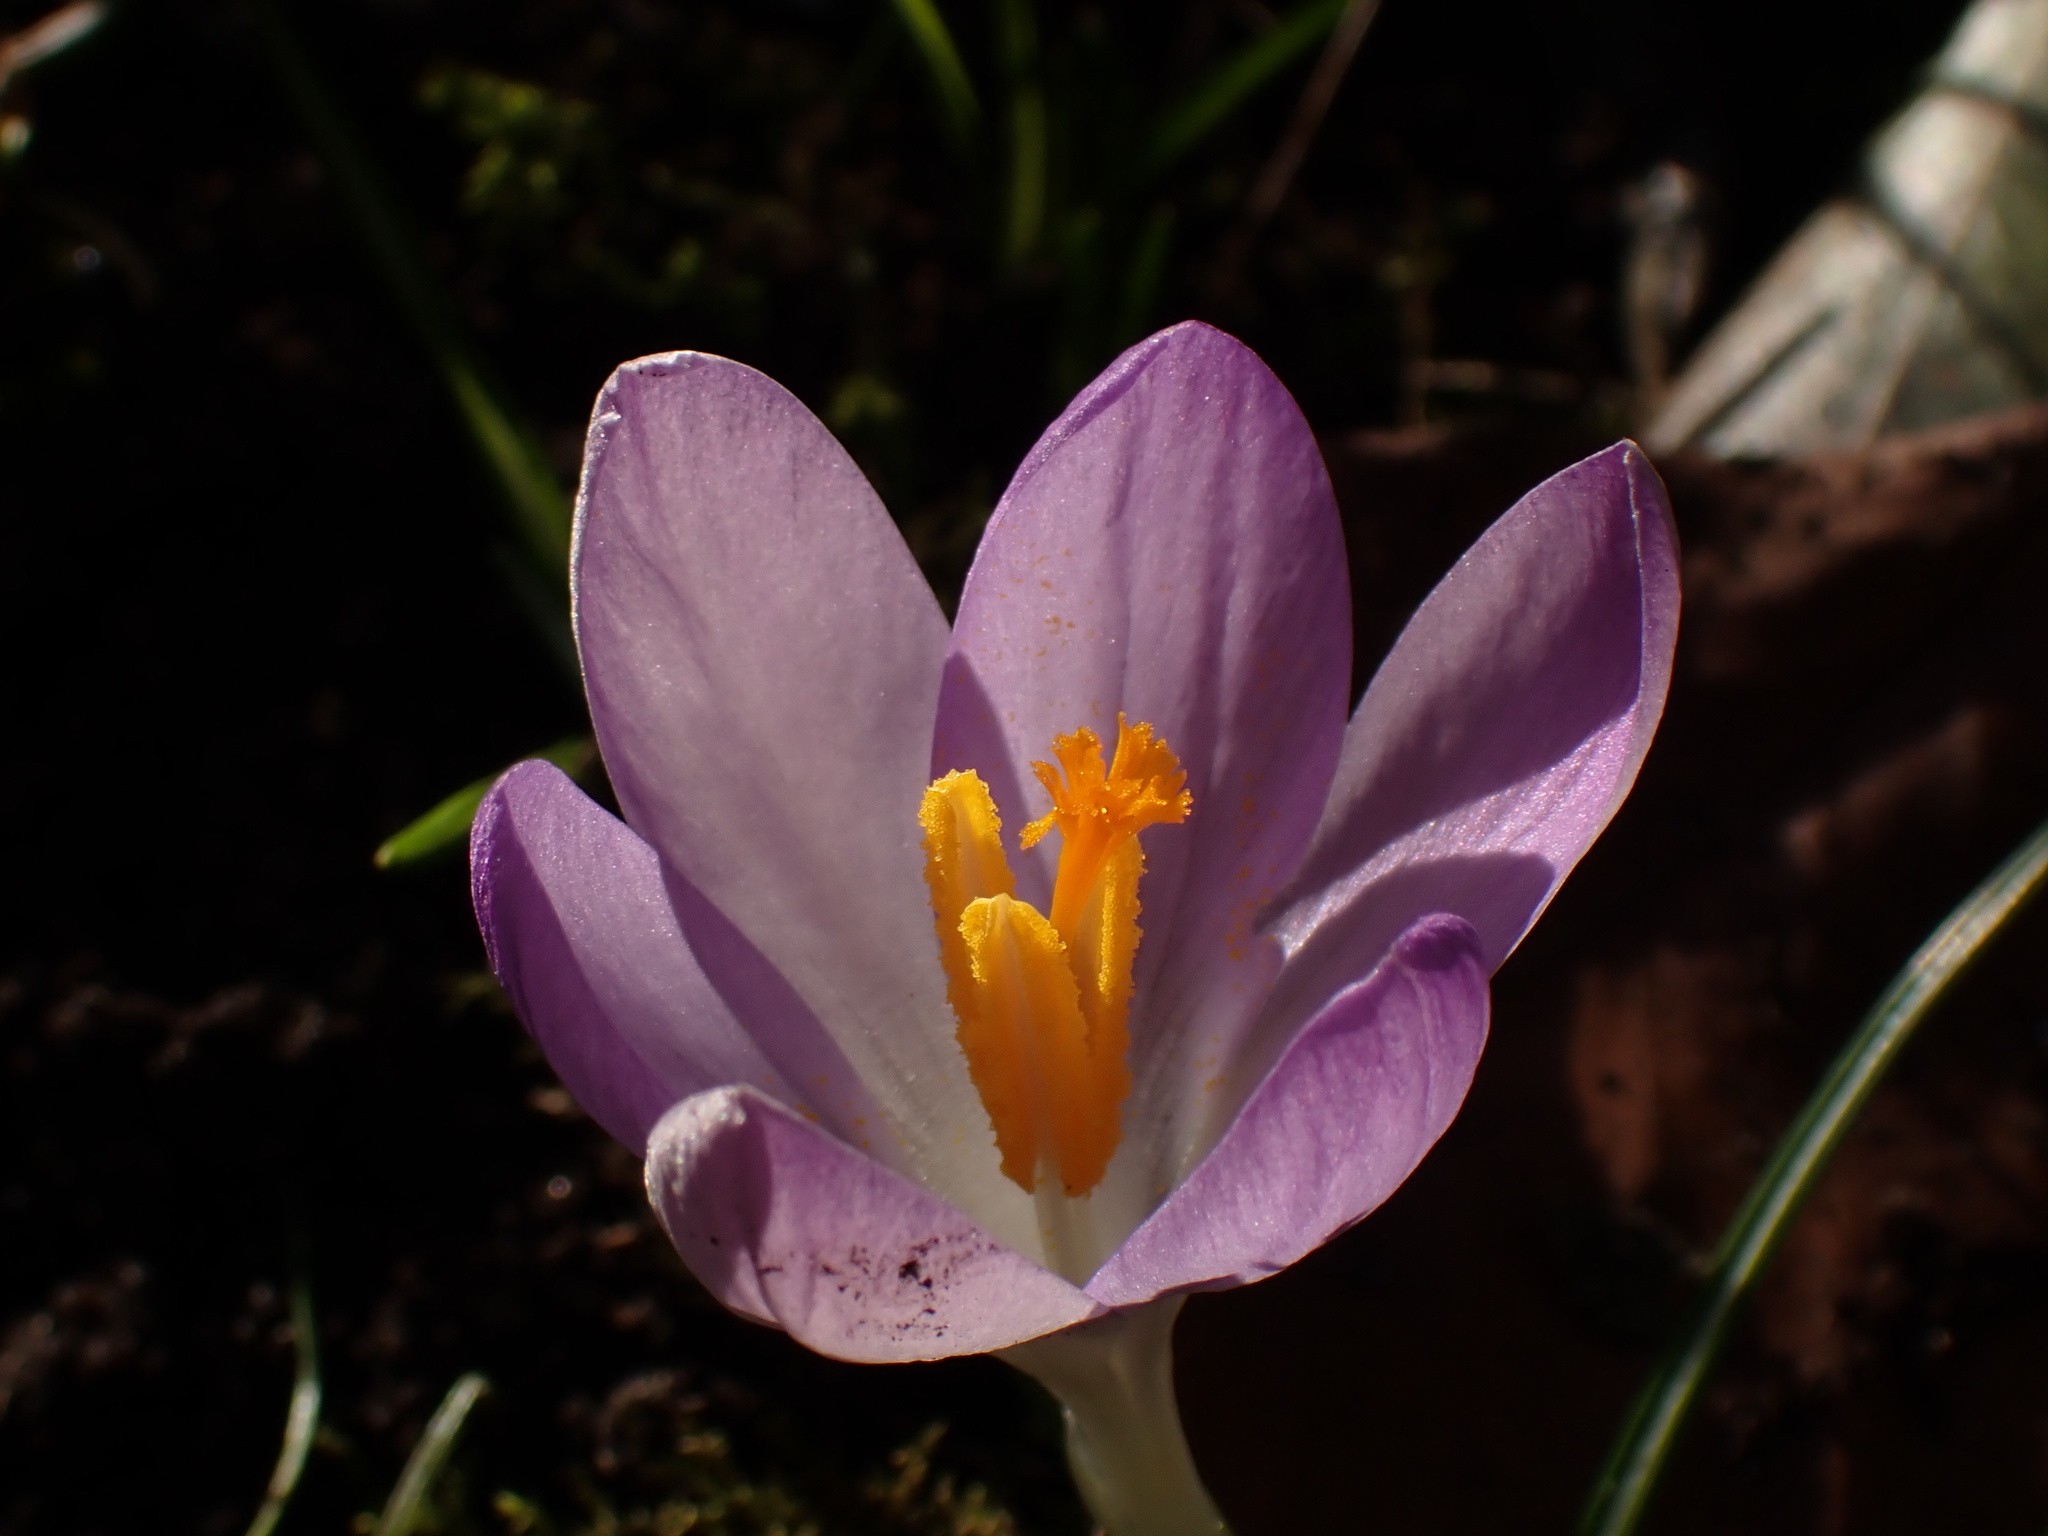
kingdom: Plantae
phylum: Tracheophyta
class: Liliopsida
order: Asparagales
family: Iridaceae
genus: Crocus
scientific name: Crocus tommasinianus
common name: Early crocus
